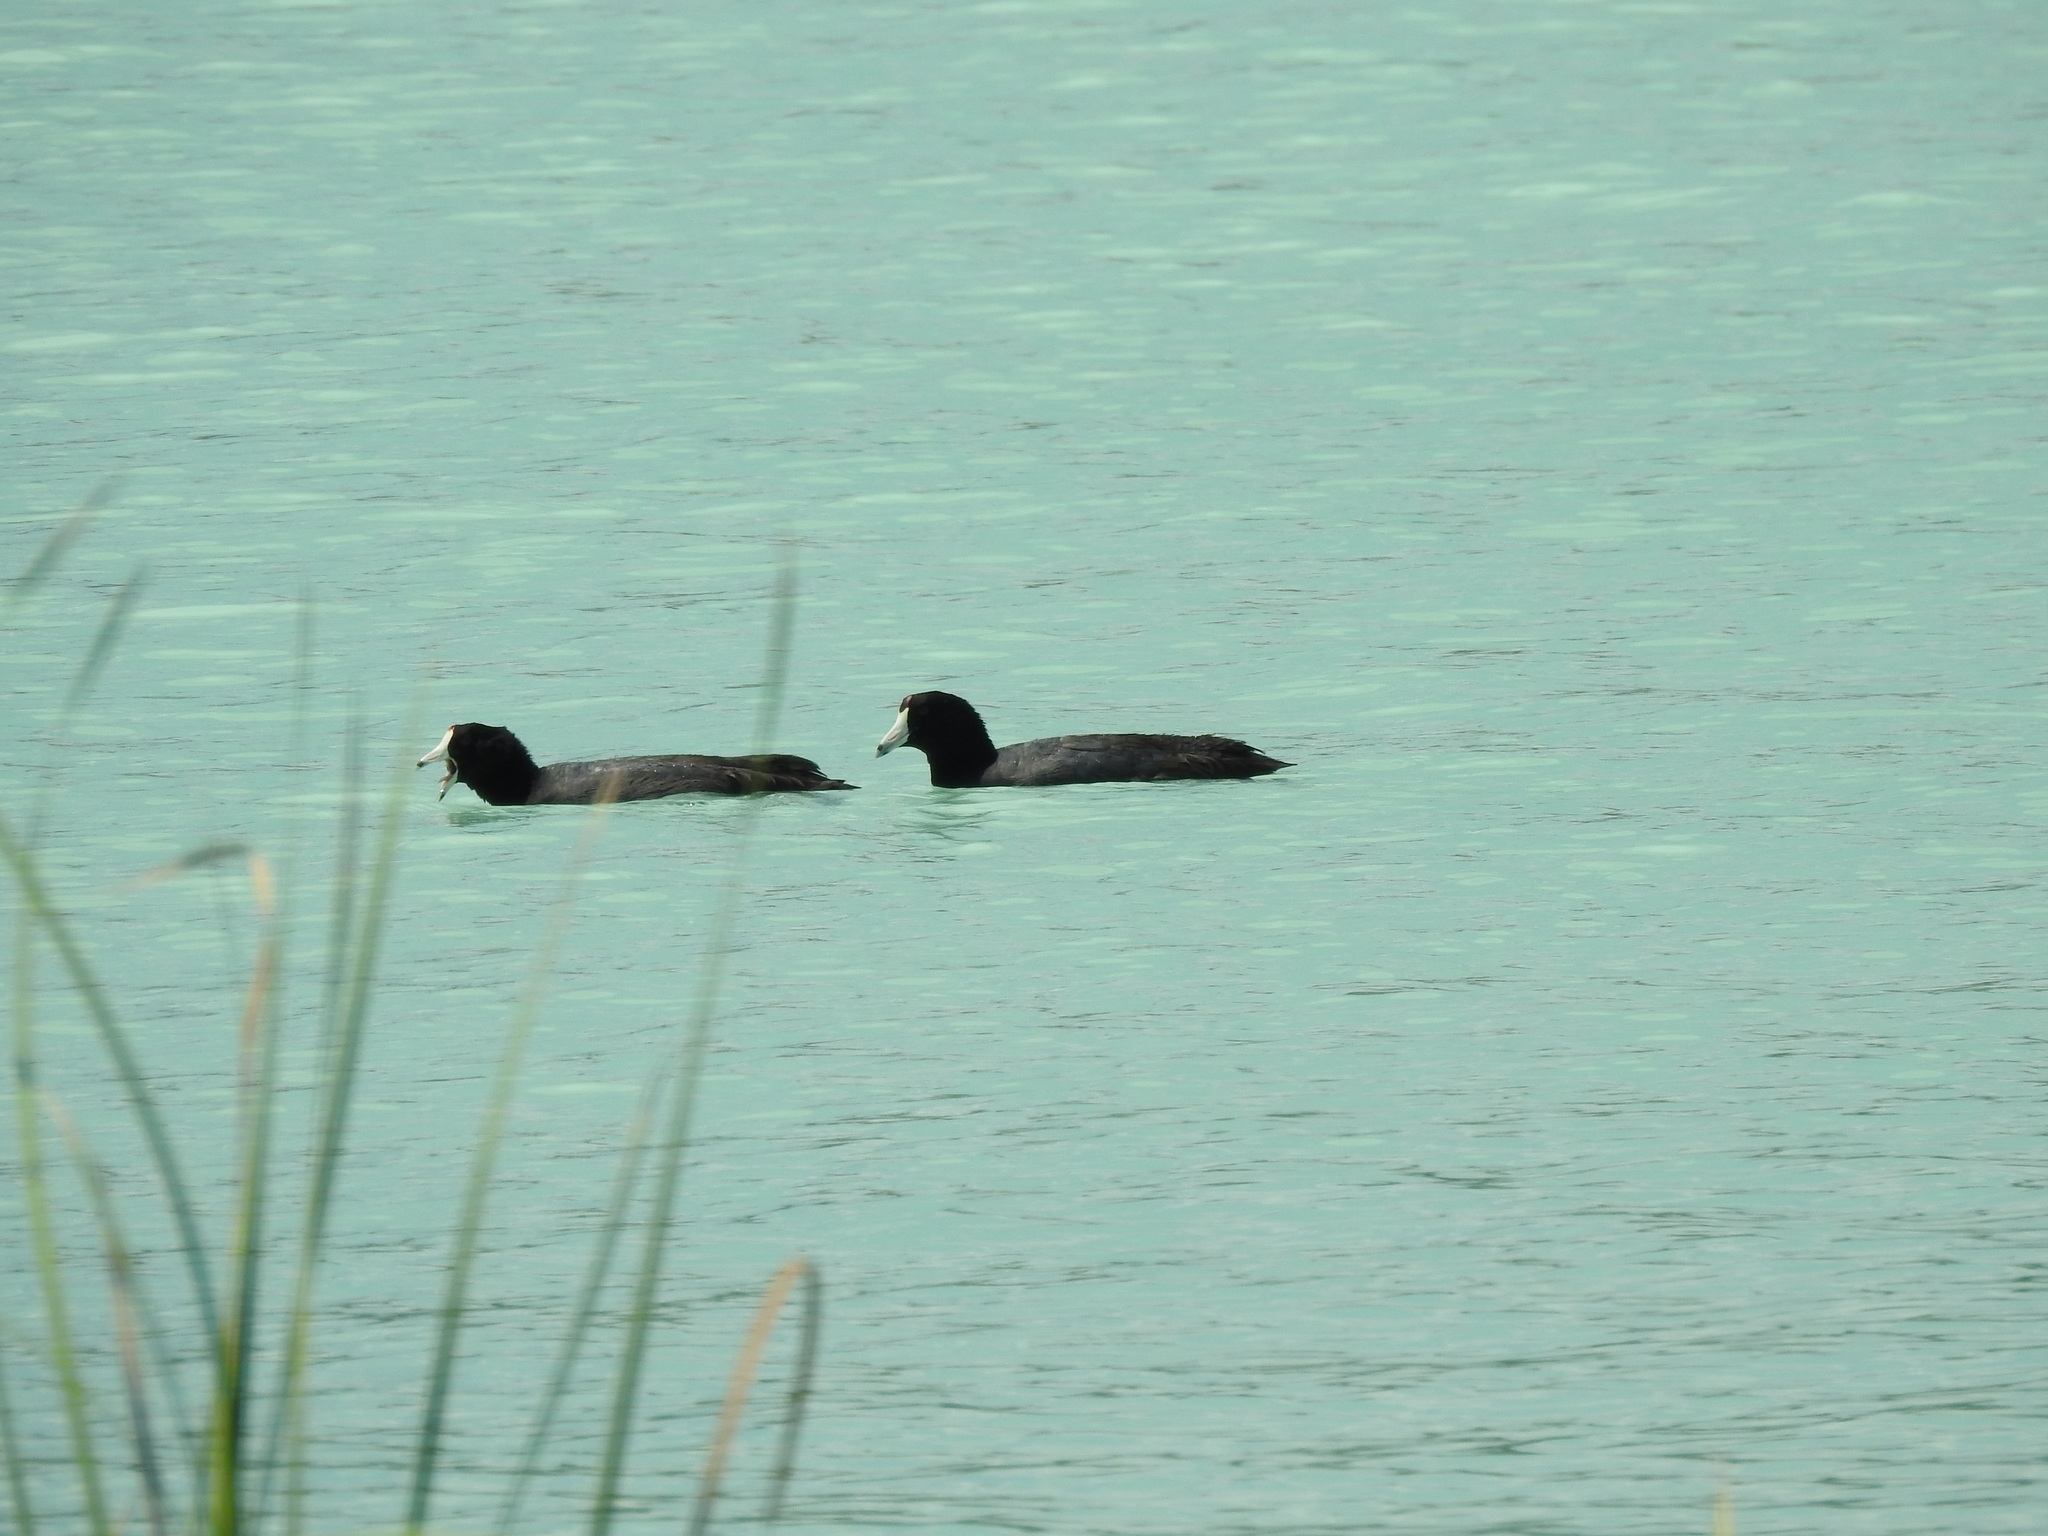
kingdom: Animalia
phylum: Chordata
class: Aves
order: Gruiformes
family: Rallidae
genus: Fulica
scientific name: Fulica americana
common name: American coot
